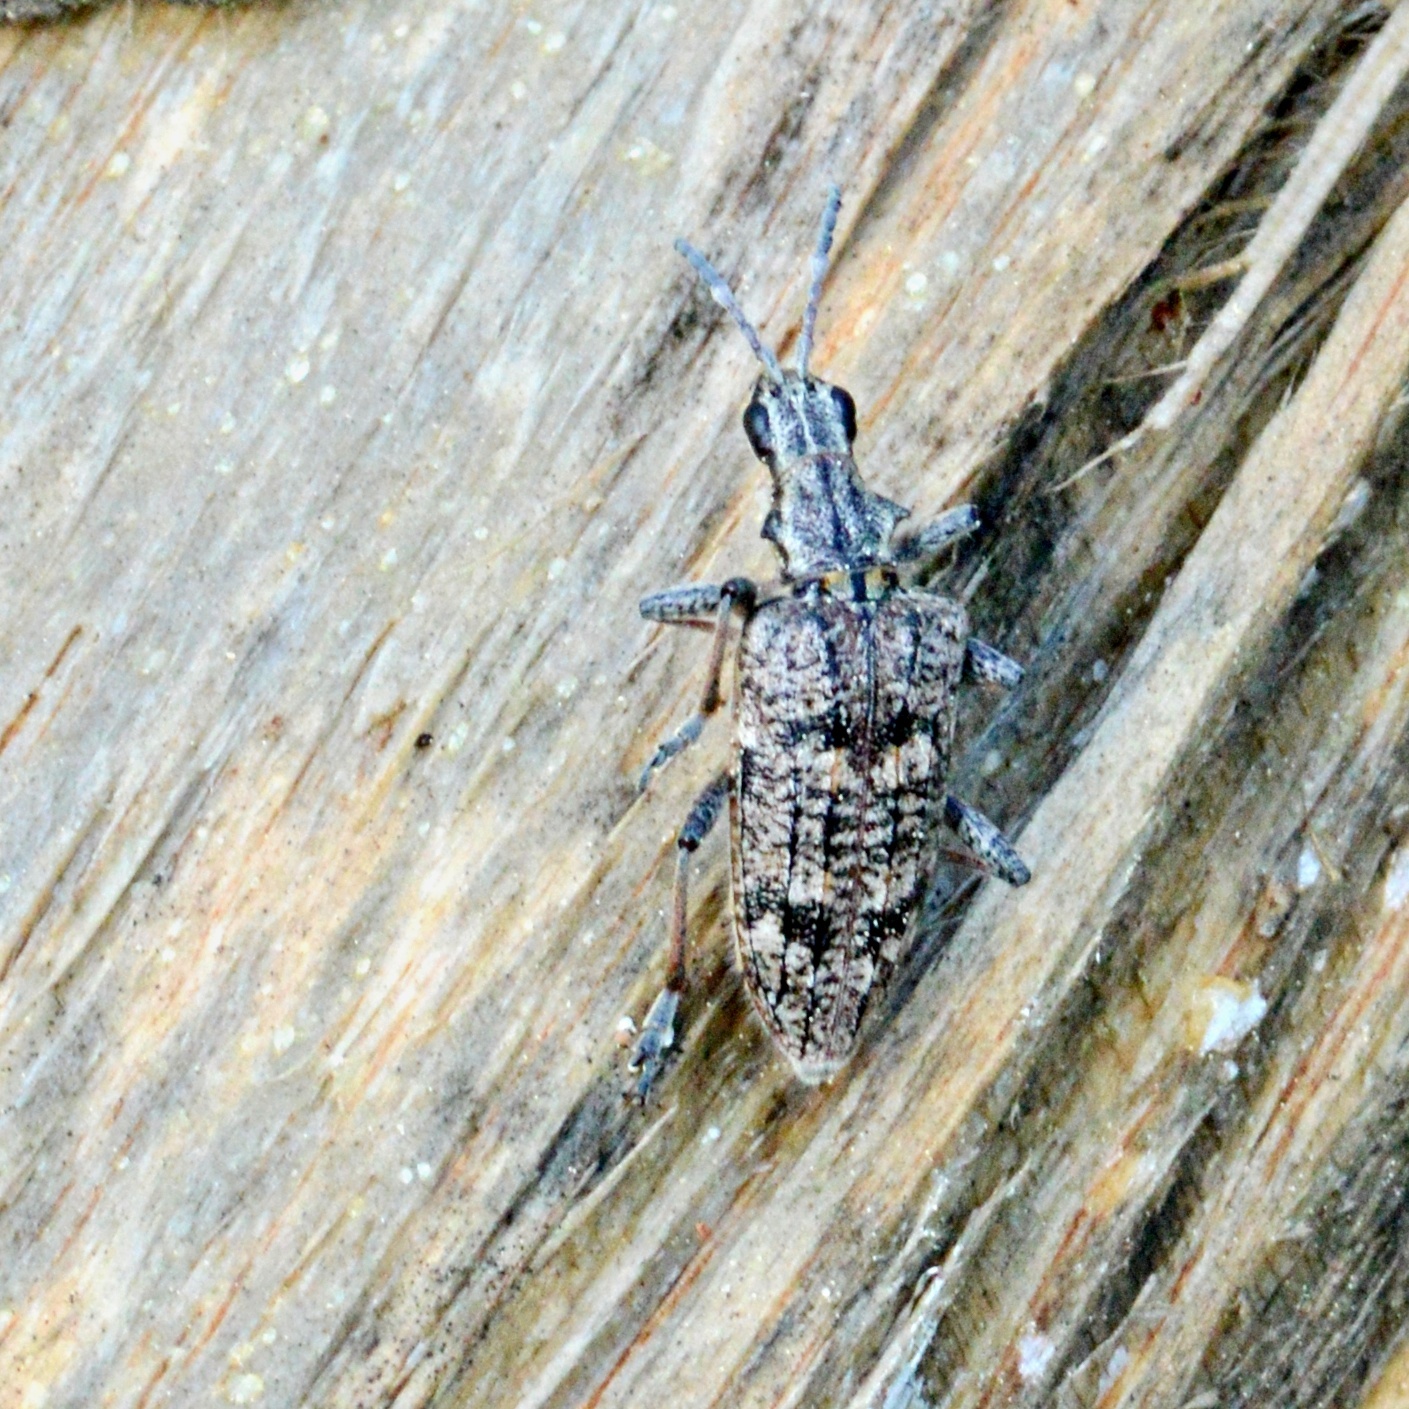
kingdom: Animalia
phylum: Arthropoda
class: Insecta
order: Coleoptera
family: Cerambycidae
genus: Rhagium
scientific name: Rhagium inquisitor
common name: Ribbed pine borer
